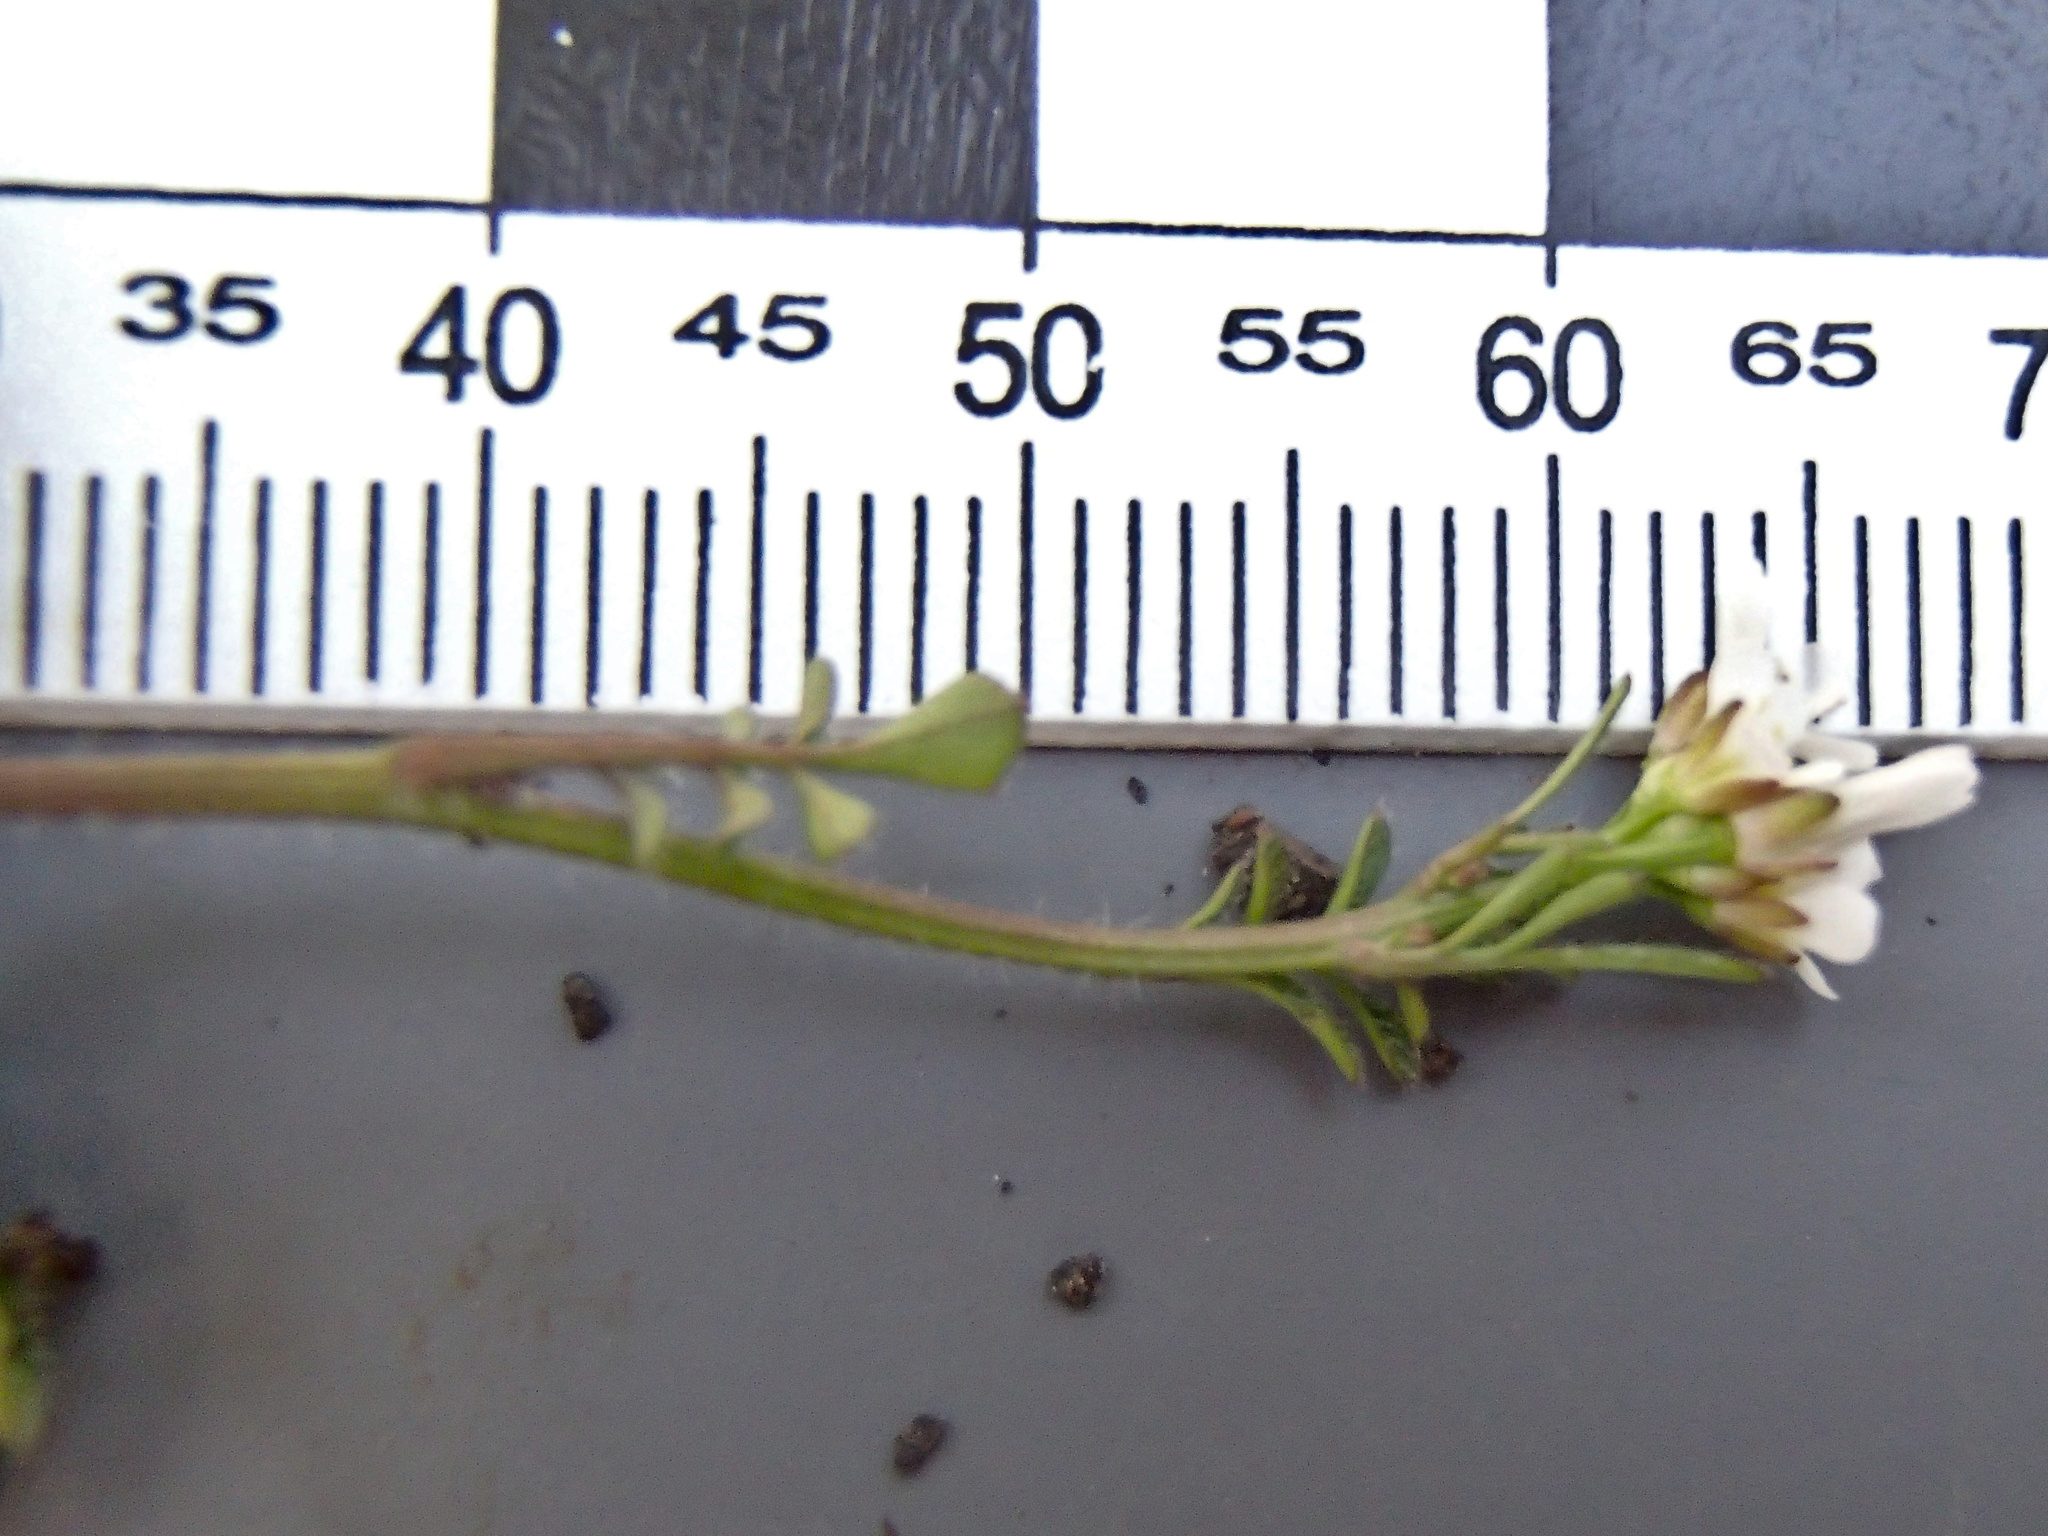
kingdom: Plantae
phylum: Tracheophyta
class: Magnoliopsida
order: Brassicales
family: Brassicaceae
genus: Cardamine
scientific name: Cardamine hirsuta
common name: Hairy bittercress
